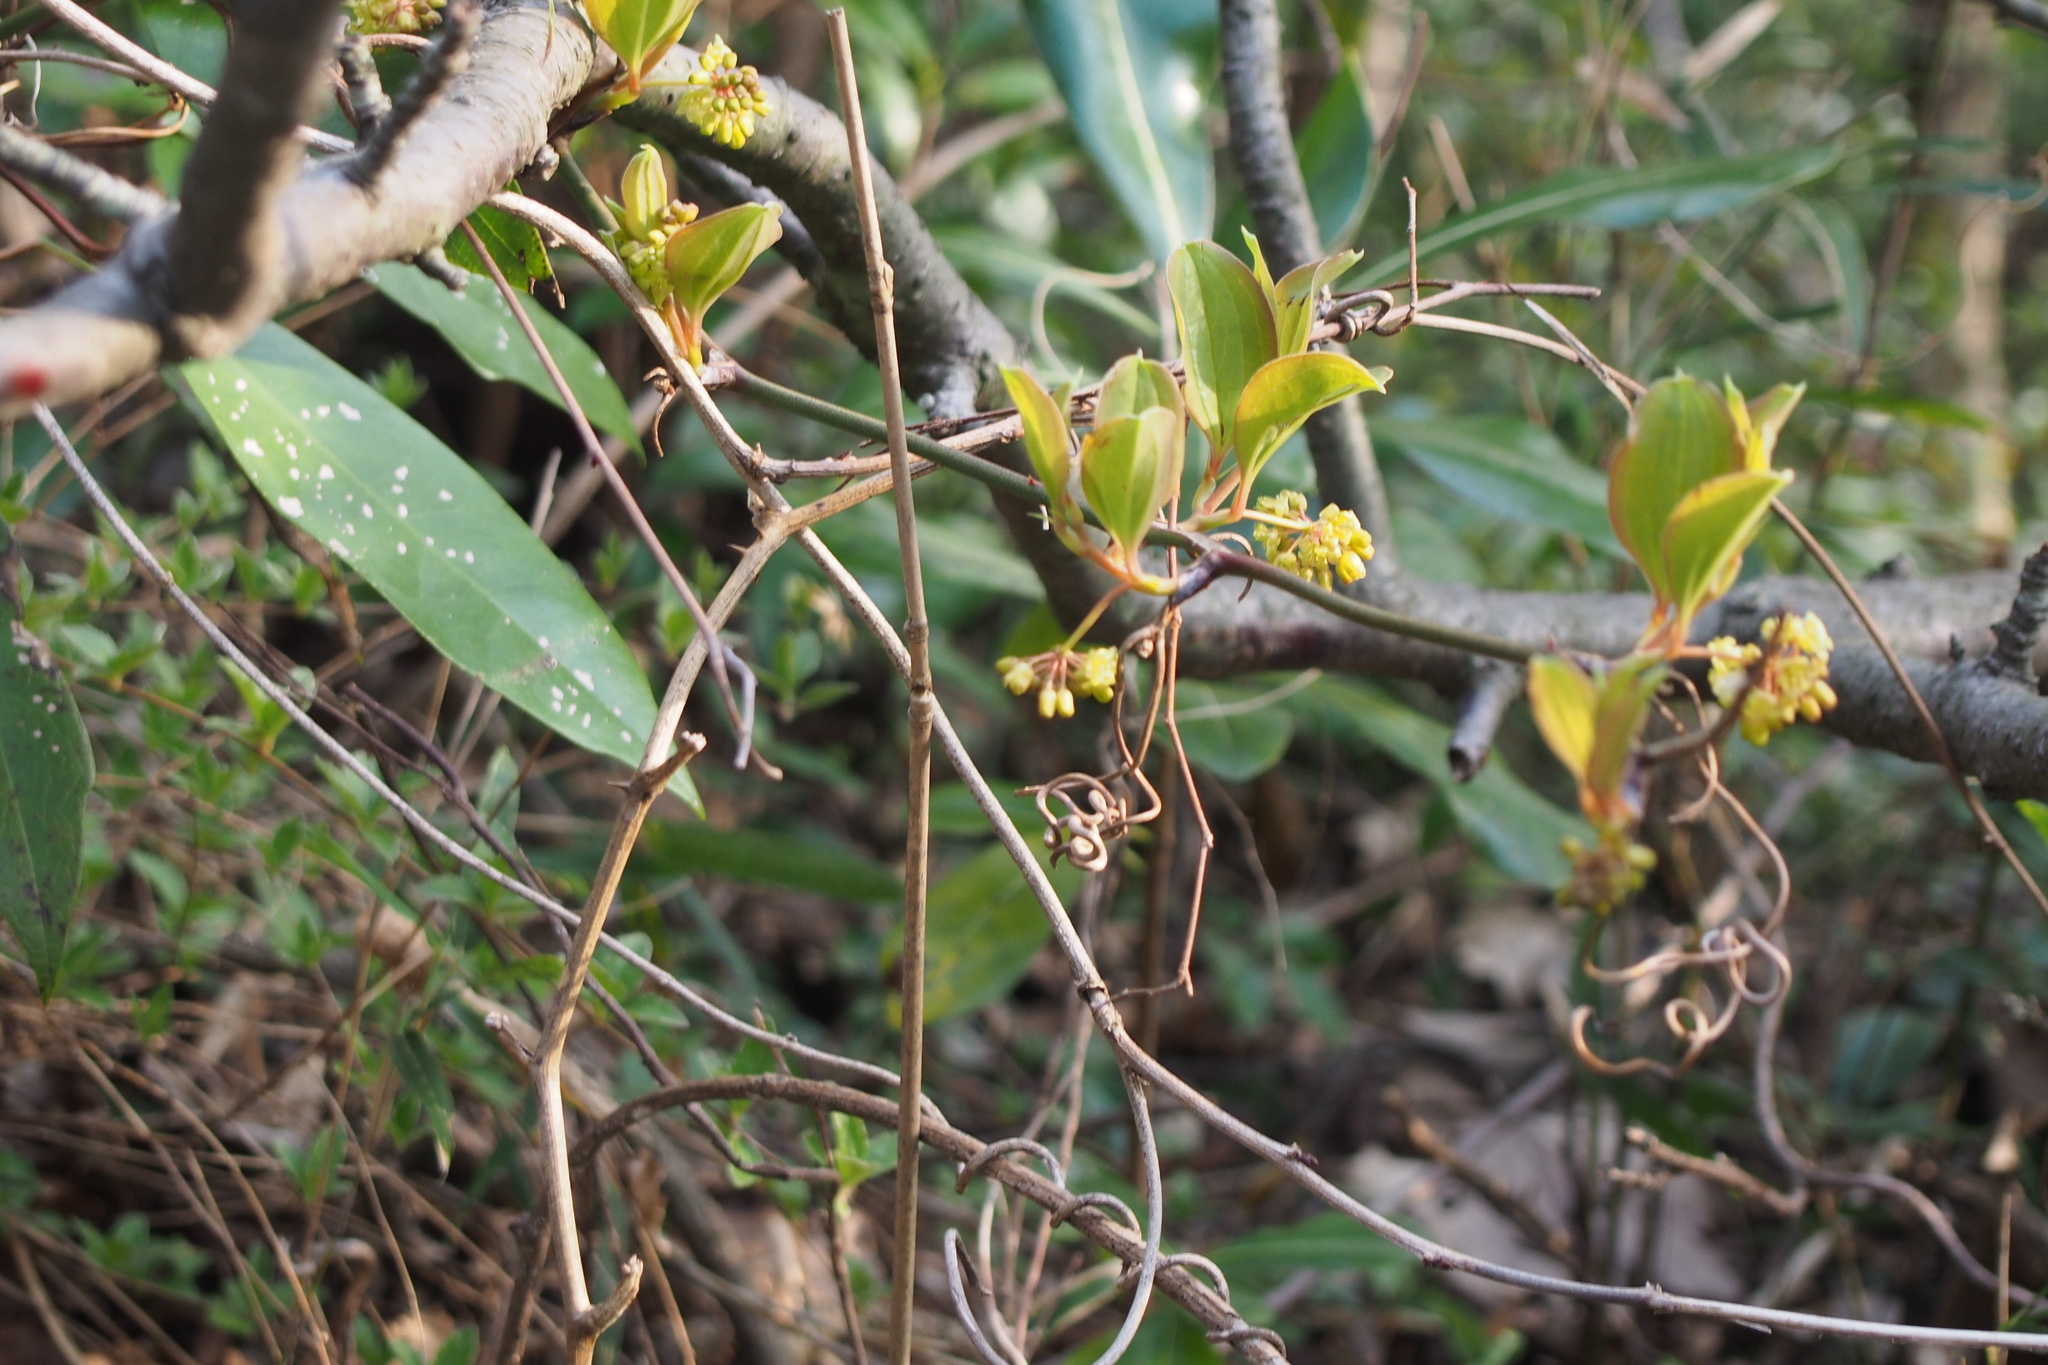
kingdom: Plantae
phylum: Tracheophyta
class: Liliopsida
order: Liliales
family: Smilacaceae
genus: Smilax
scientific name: Smilax china
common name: Chinaroot
